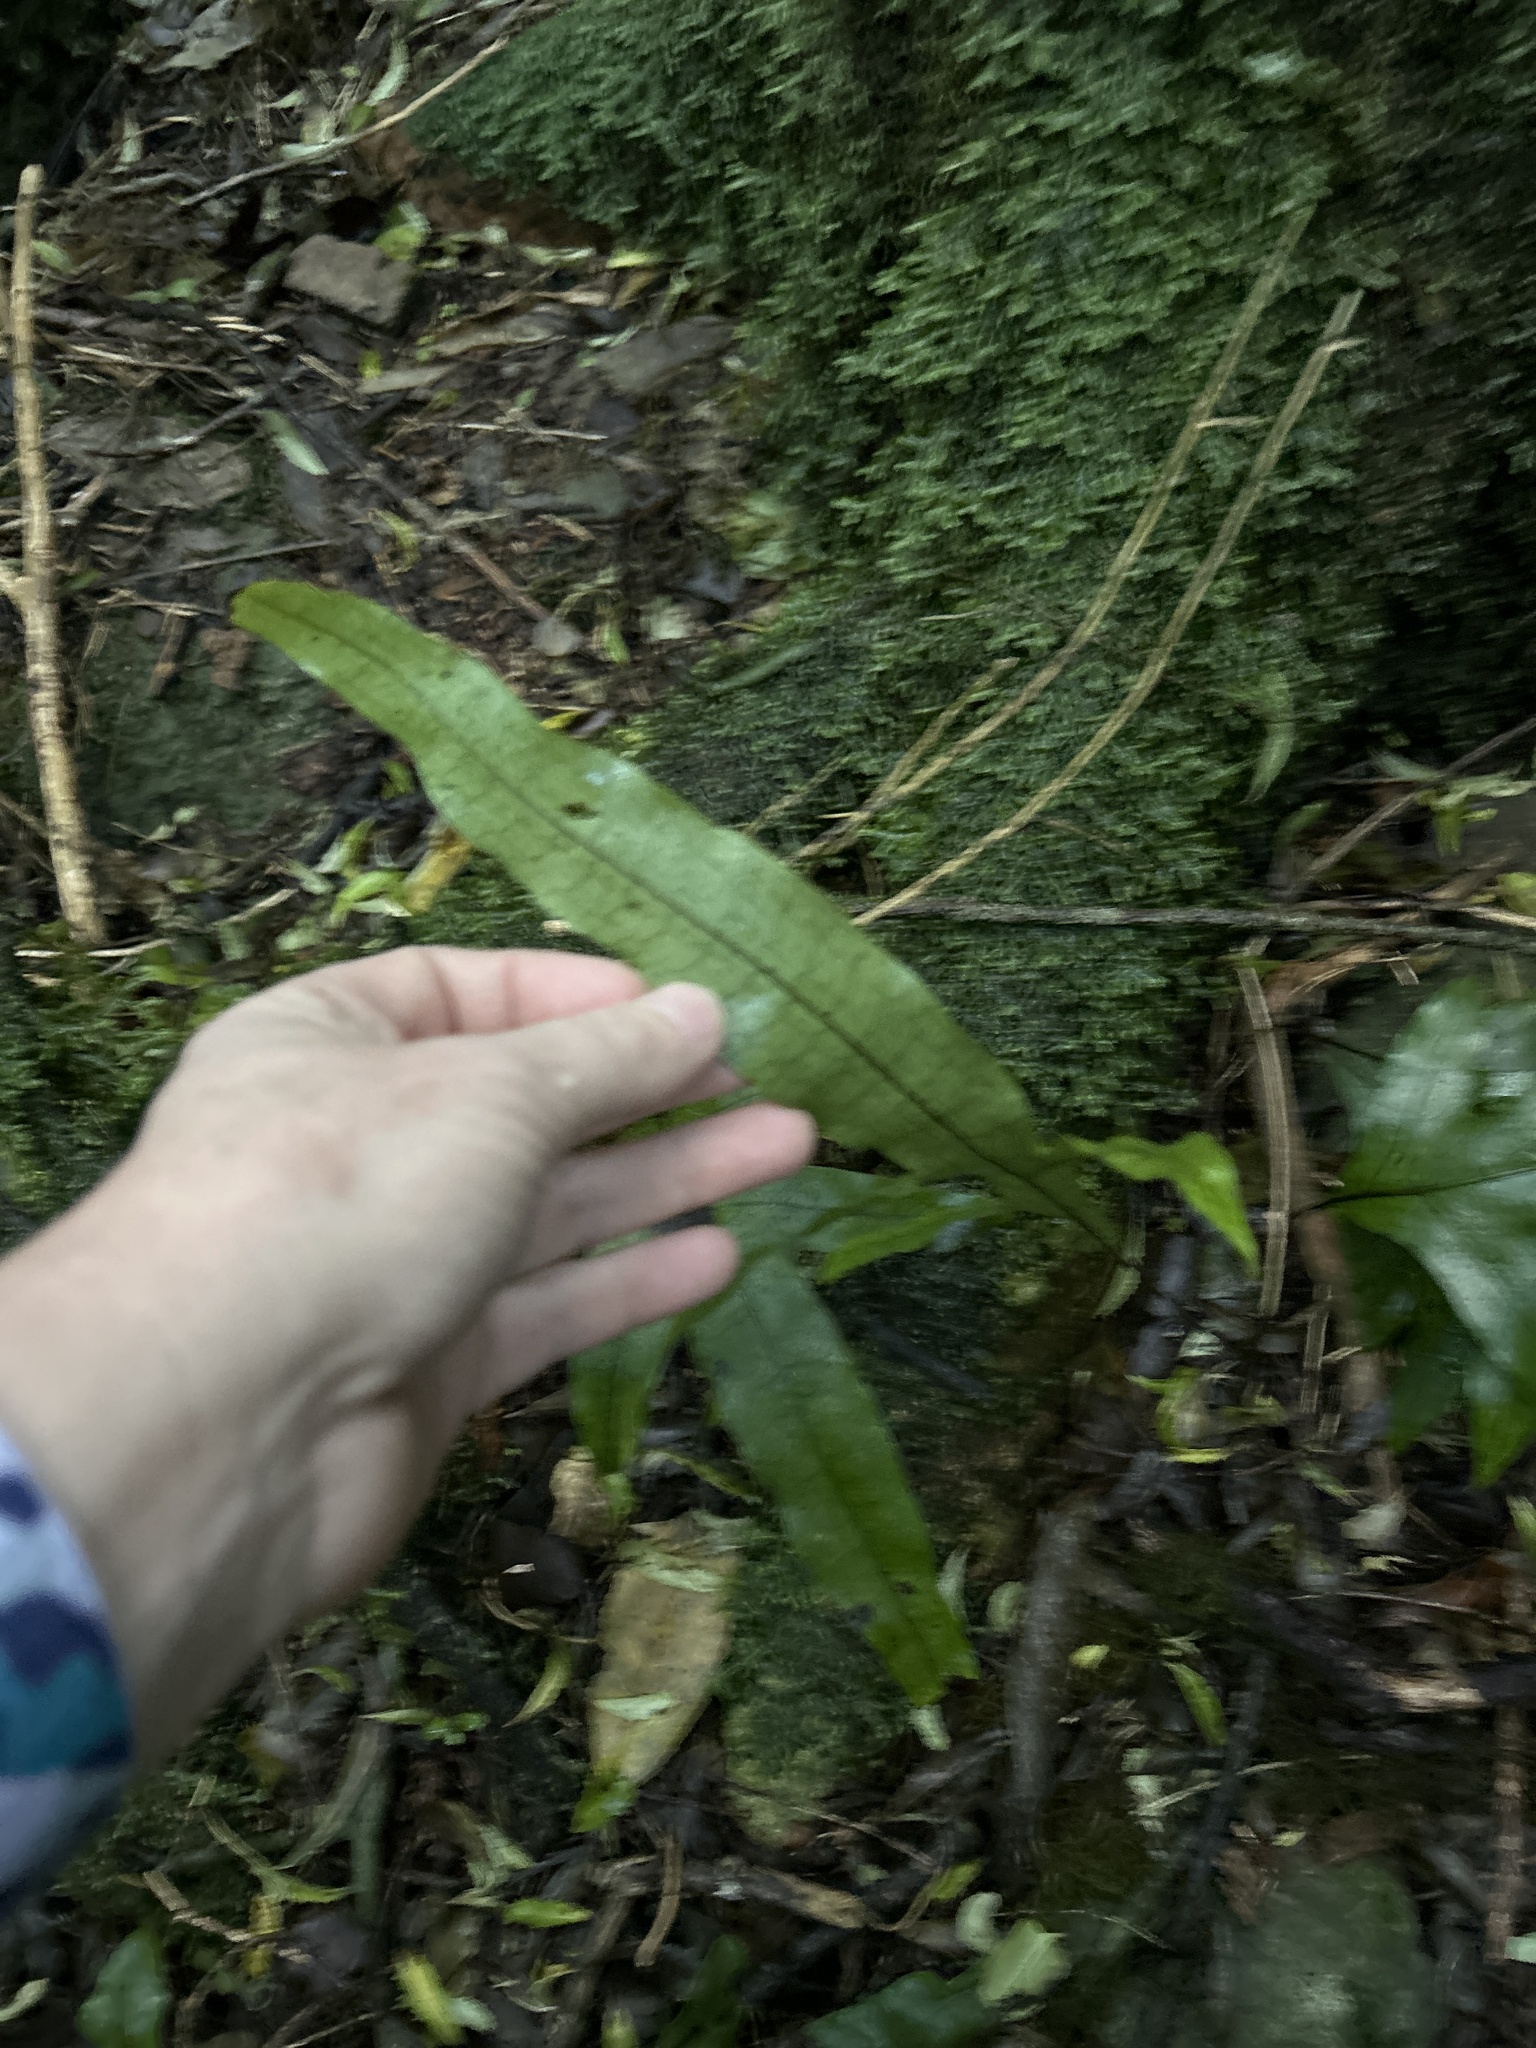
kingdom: Plantae
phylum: Tracheophyta
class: Polypodiopsida
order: Polypodiales
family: Polypodiaceae
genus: Lecanopteris
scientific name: Lecanopteris pustulata
